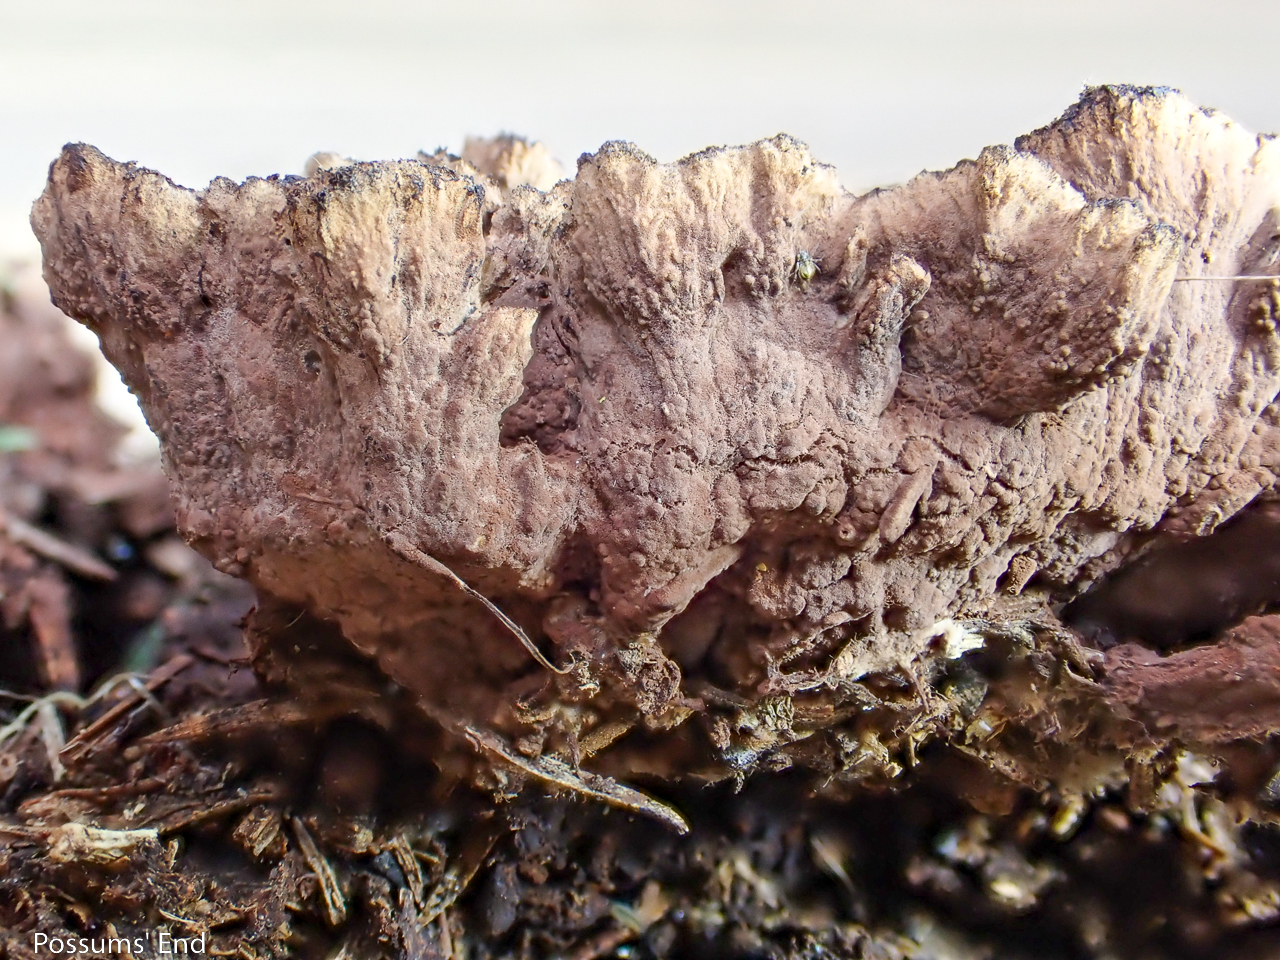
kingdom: Fungi
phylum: Basidiomycota
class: Agaricomycetes
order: Thelephorales
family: Thelephoraceae
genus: Thelephora
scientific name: Thelephora terrestris
